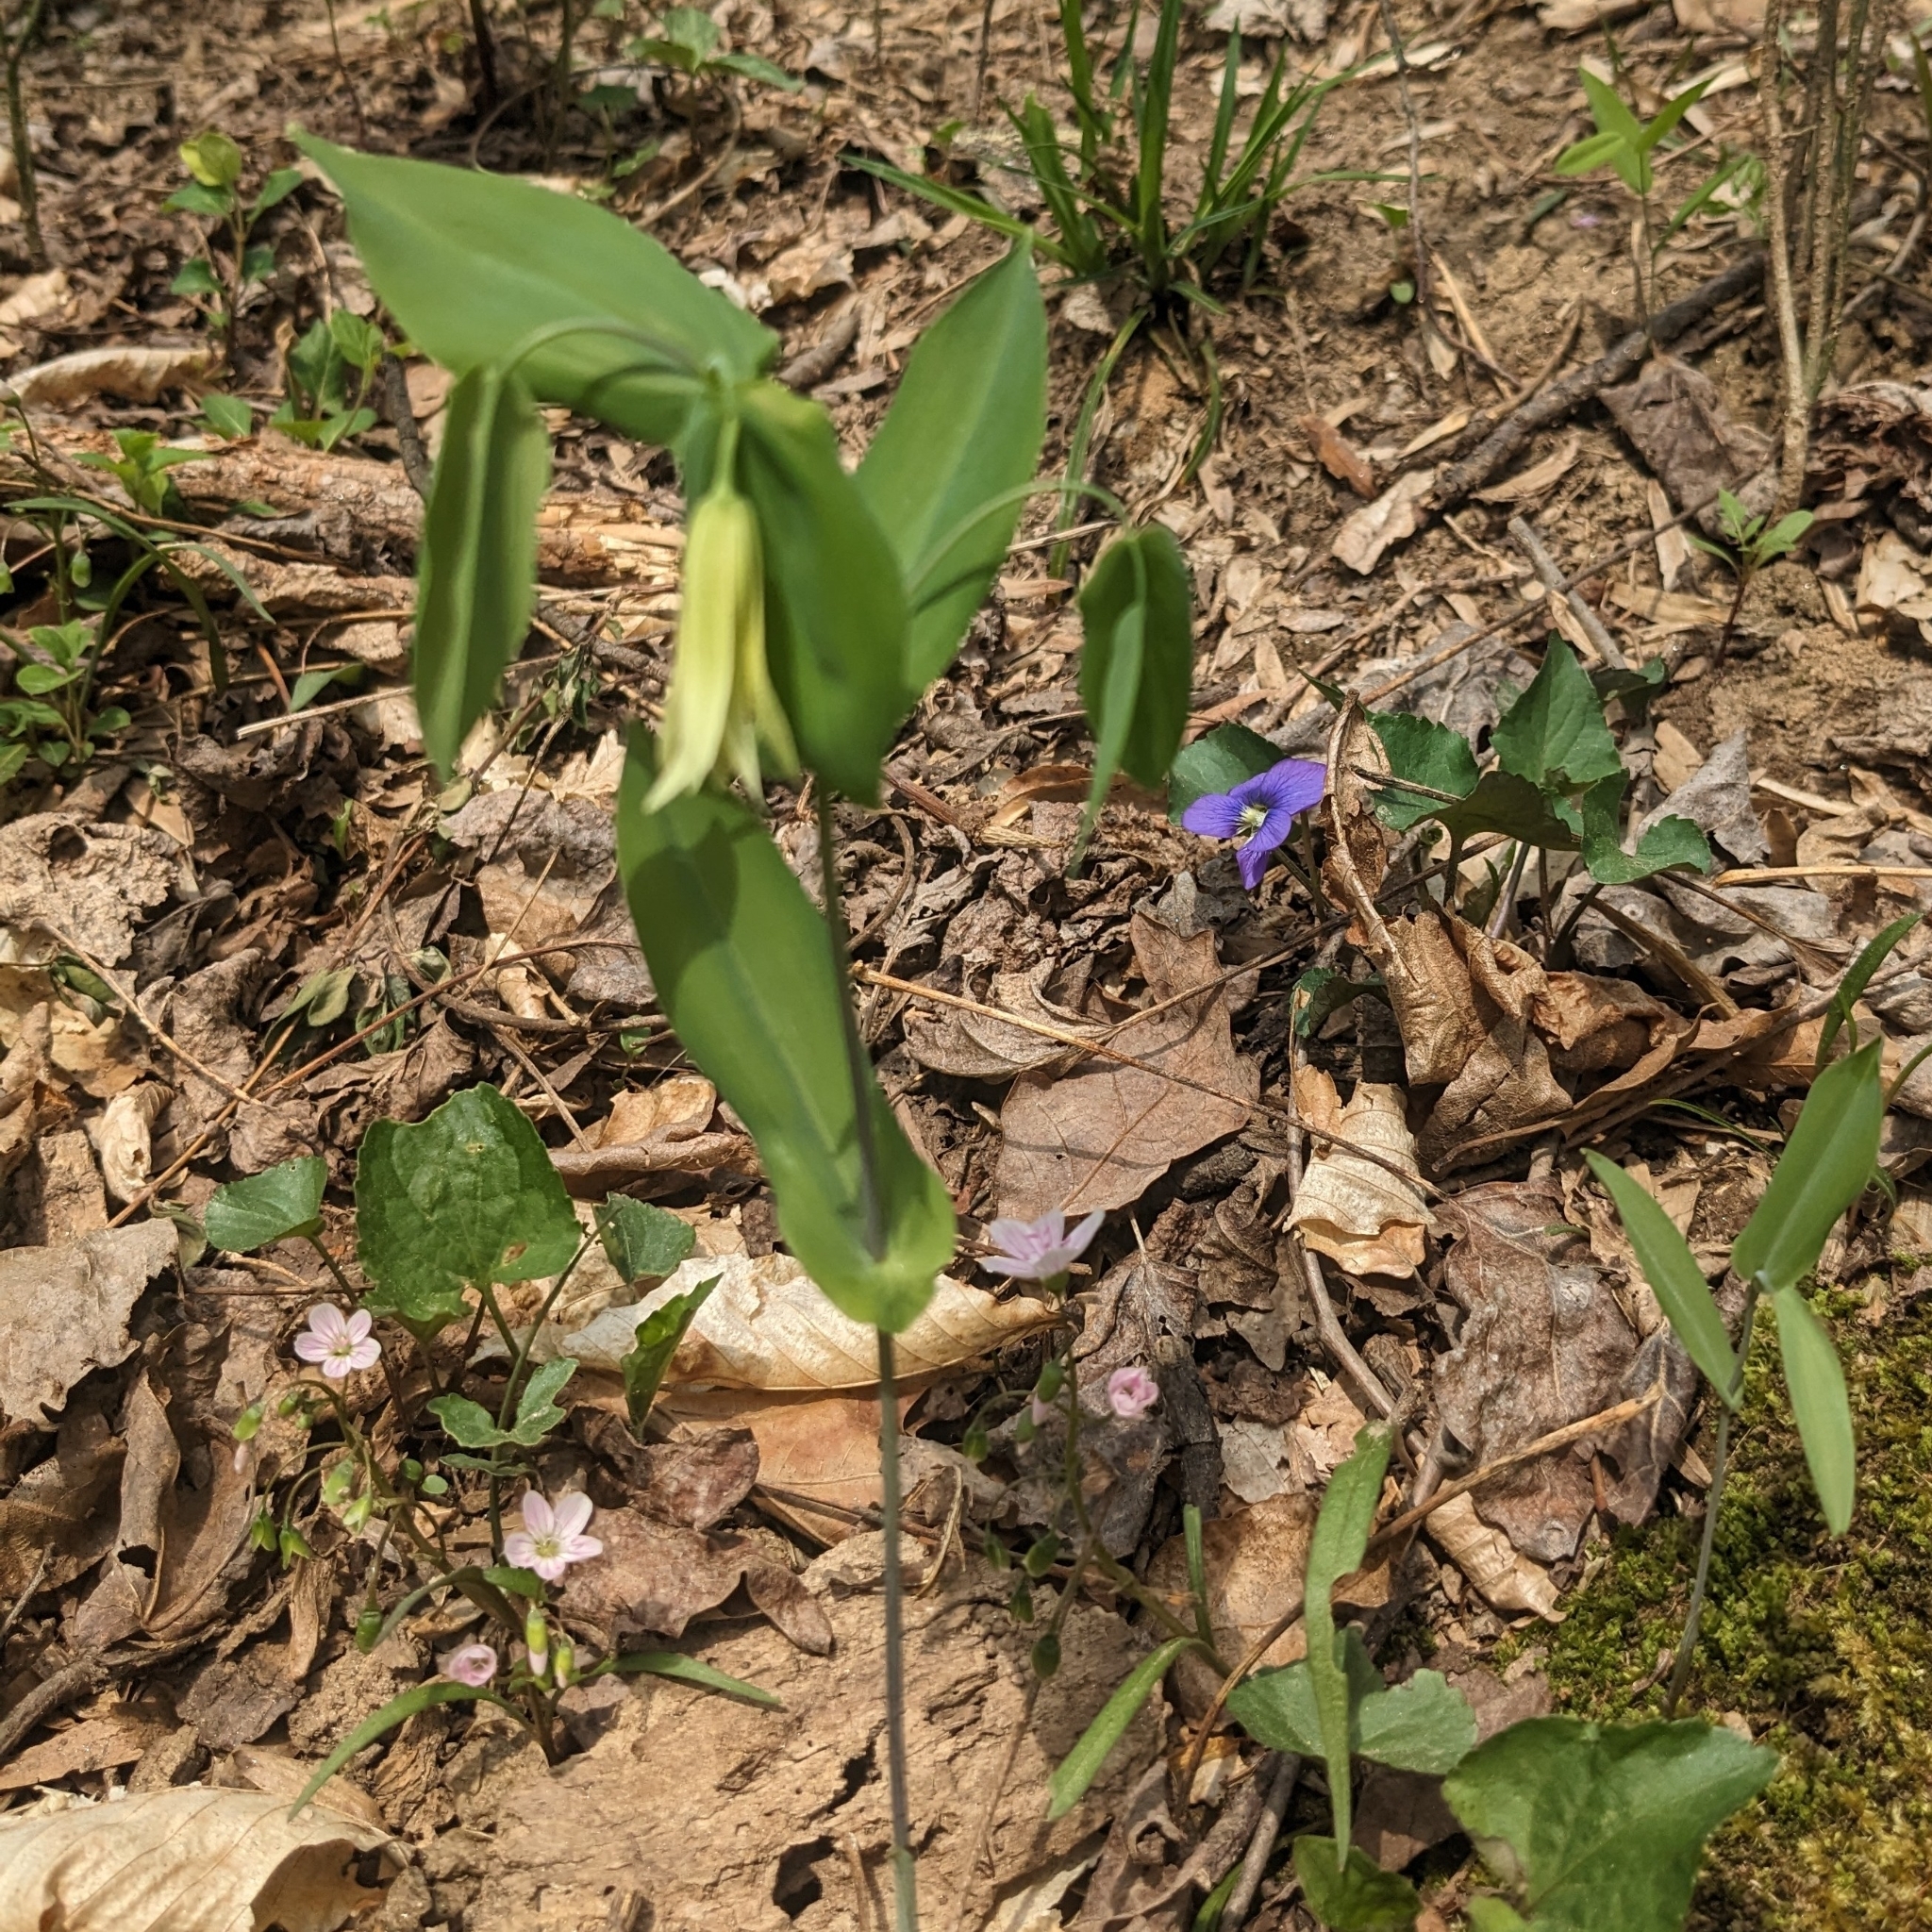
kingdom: Plantae
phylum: Tracheophyta
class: Liliopsida
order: Liliales
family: Colchicaceae
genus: Uvularia
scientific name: Uvularia perfoliata
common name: Perfoliate bellwort
